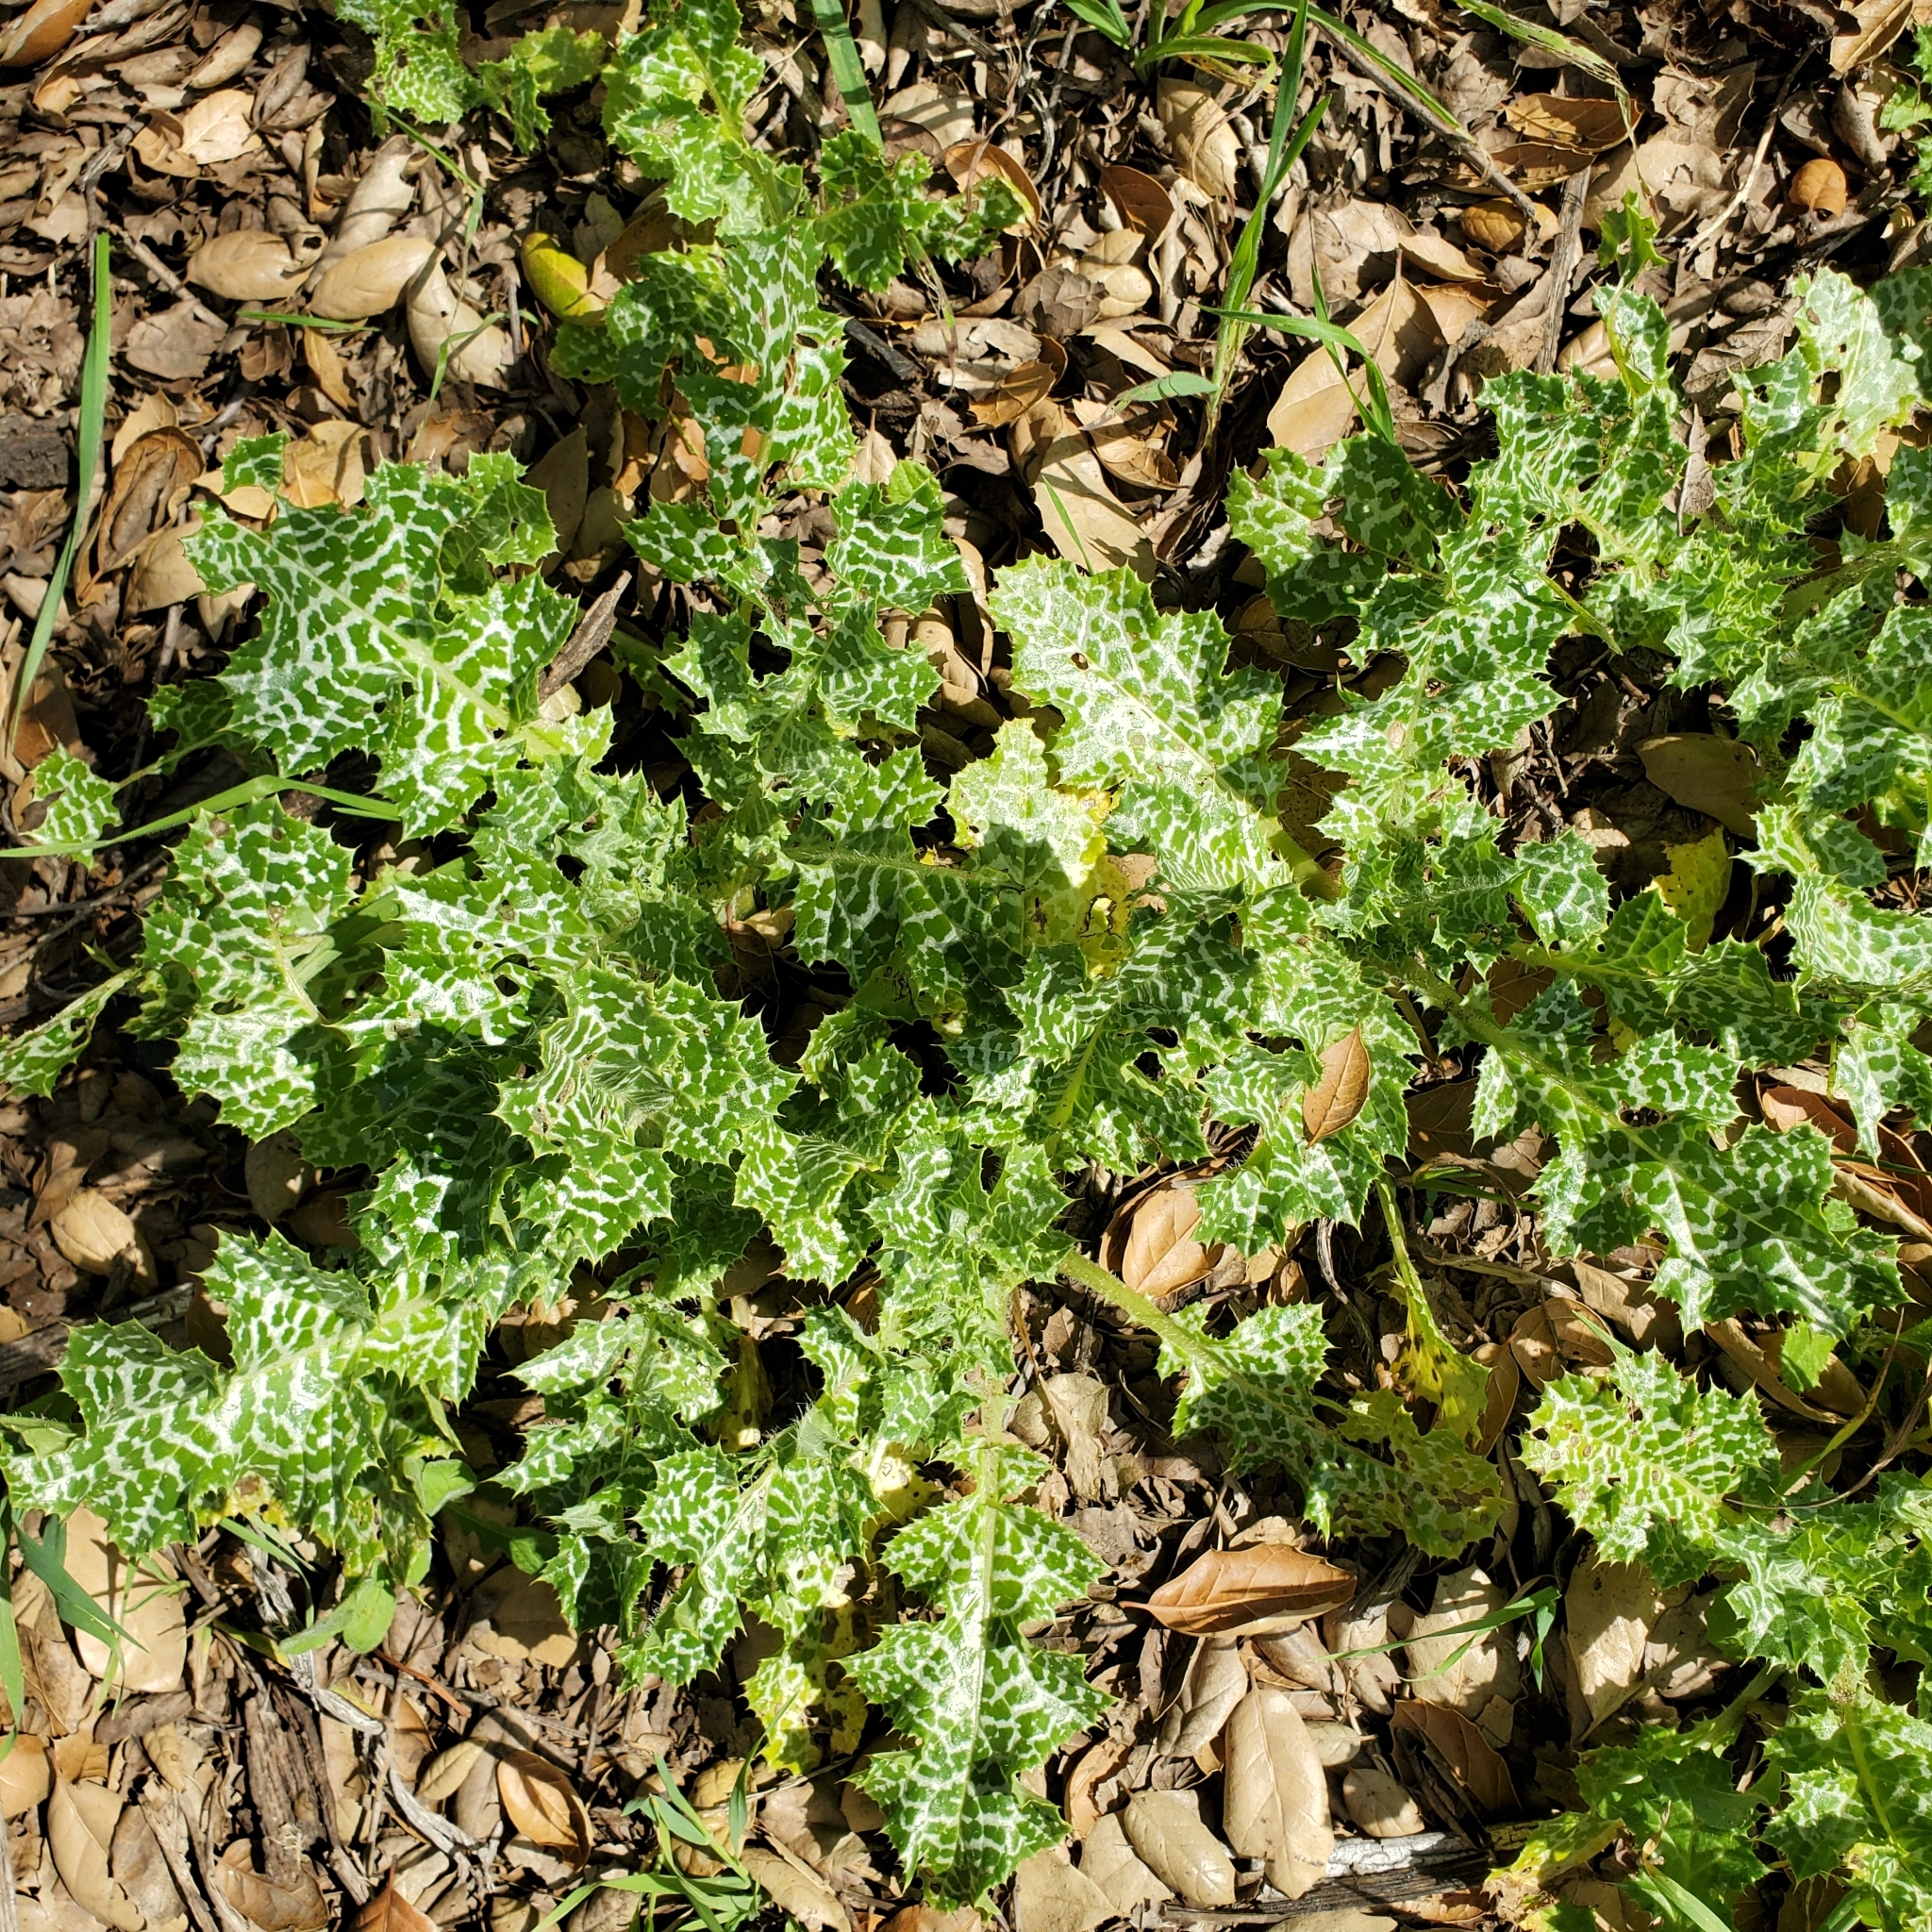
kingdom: Plantae
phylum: Tracheophyta
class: Magnoliopsida
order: Asterales
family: Asteraceae
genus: Silybum
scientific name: Silybum marianum
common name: Milk thistle
